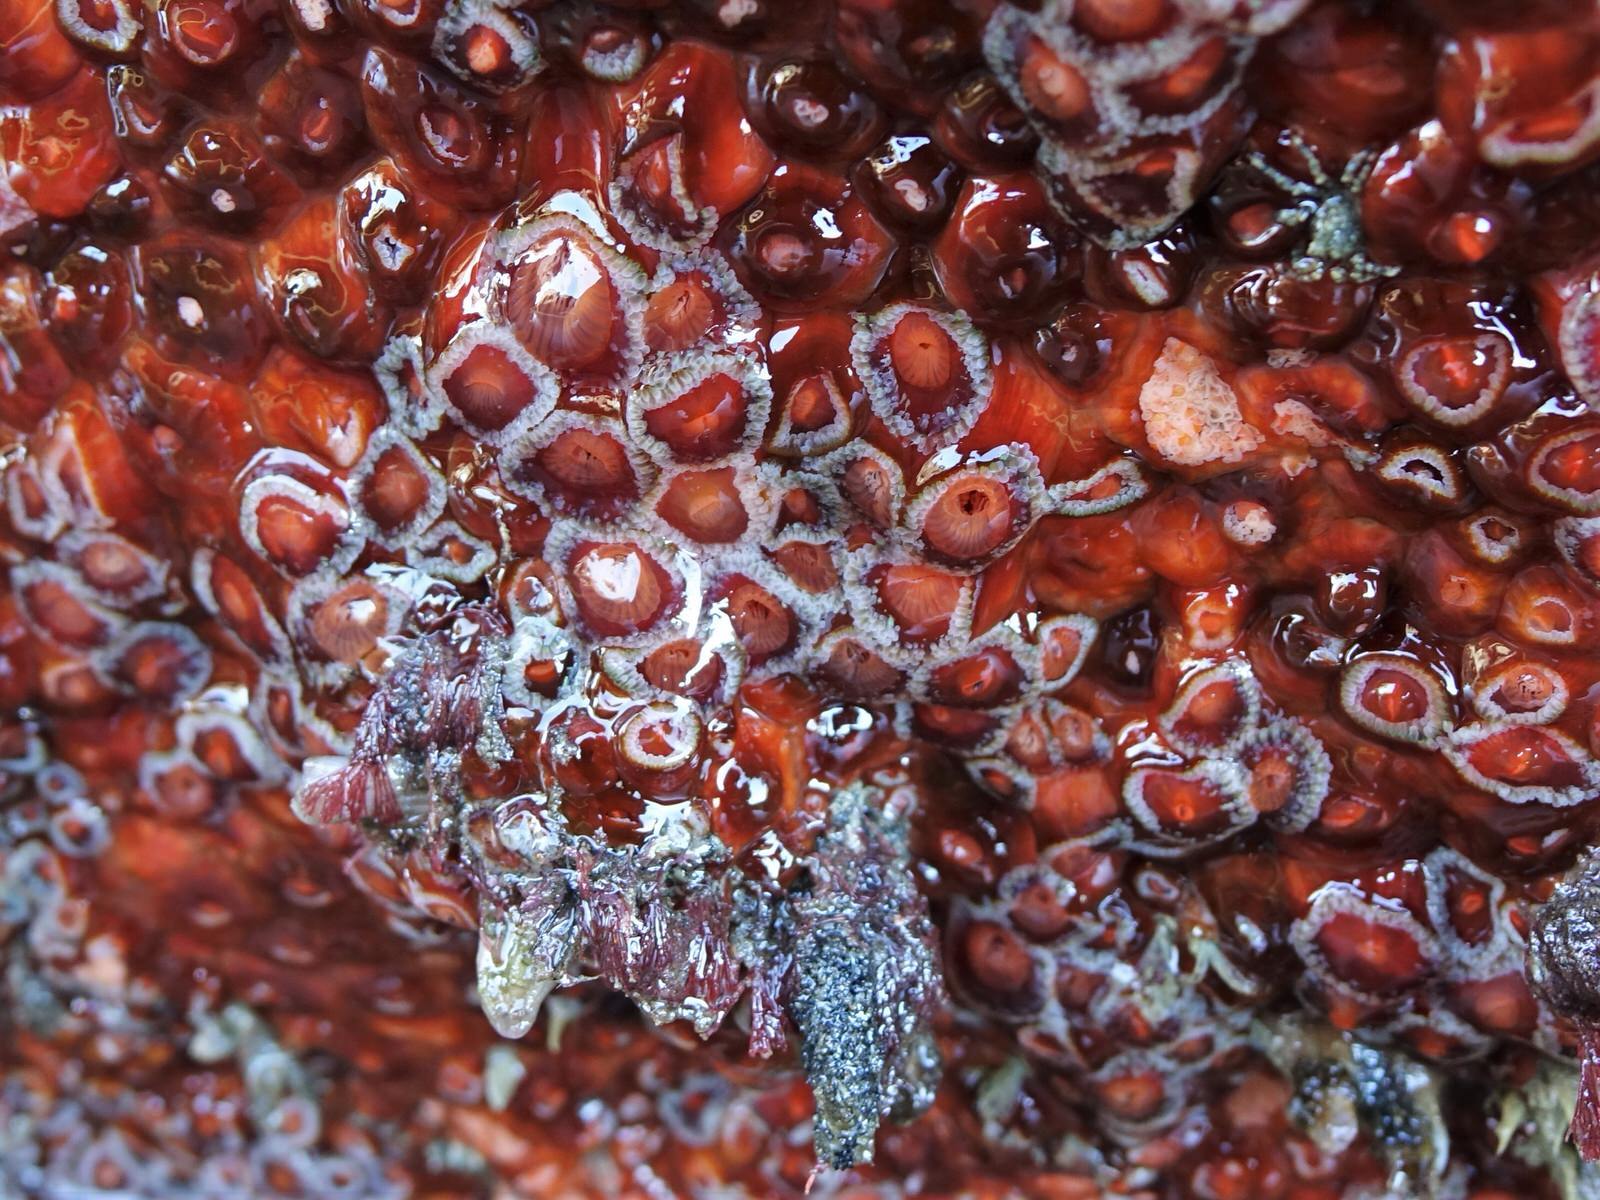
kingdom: Animalia
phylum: Cnidaria
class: Anthozoa
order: Corallimorpharia
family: Corallimorphidae
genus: Corynactis
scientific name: Corynactis australis
